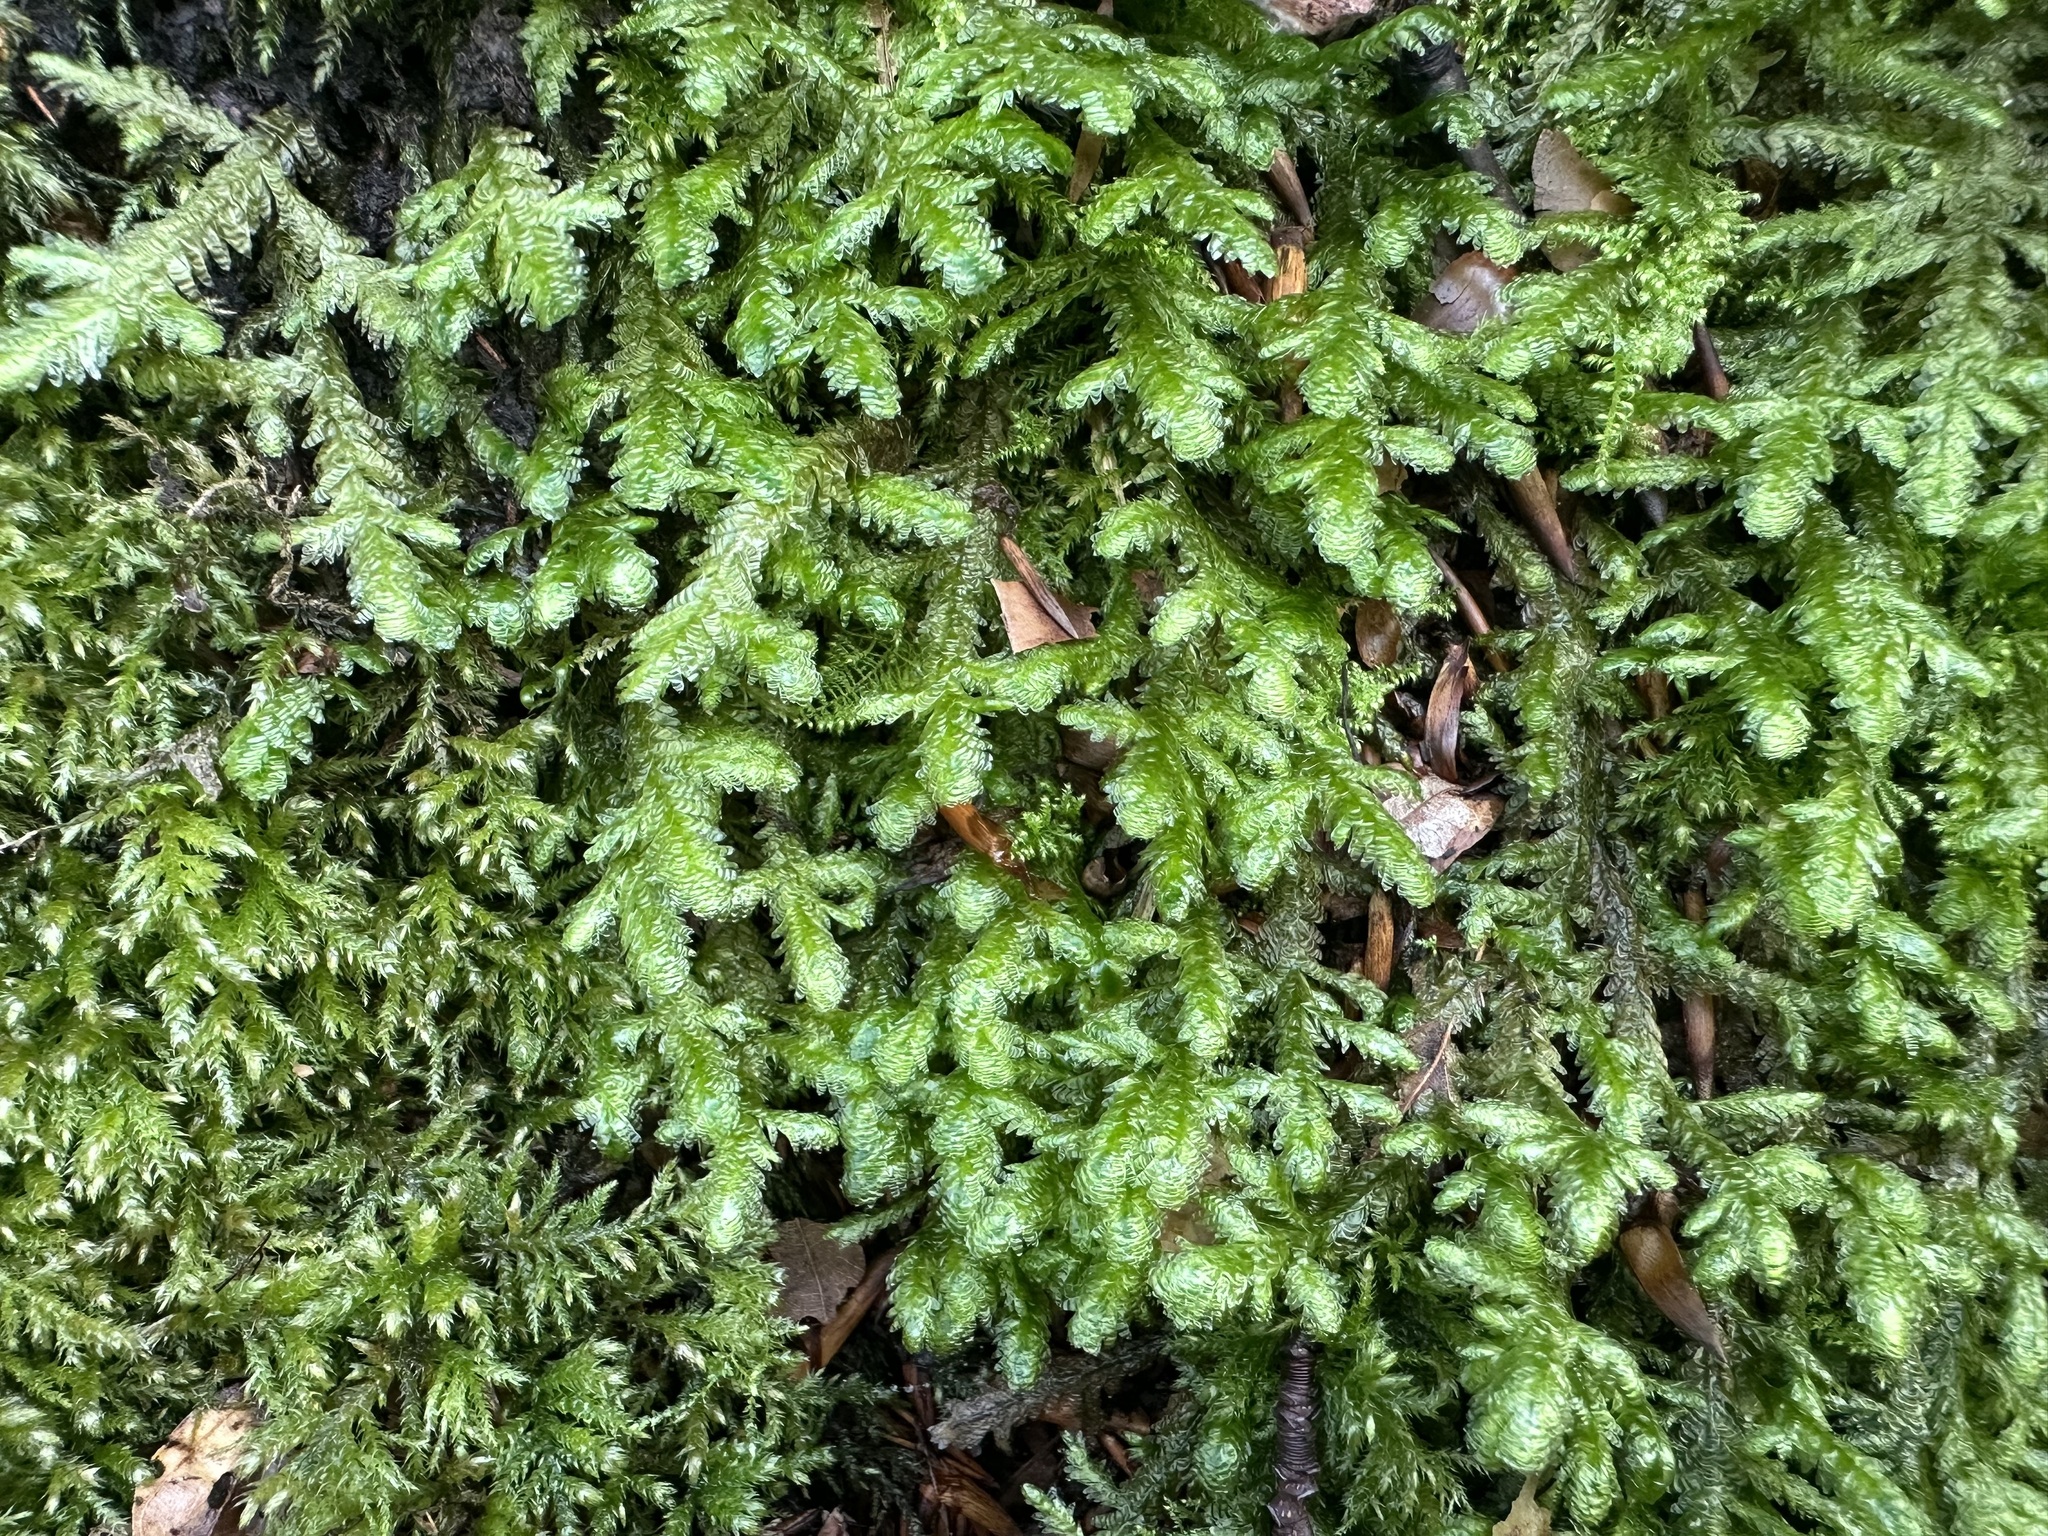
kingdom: Plantae
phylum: Bryophyta
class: Bryopsida
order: Hypnales
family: Neckeraceae
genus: Exsertotheca
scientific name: Exsertotheca crispa
